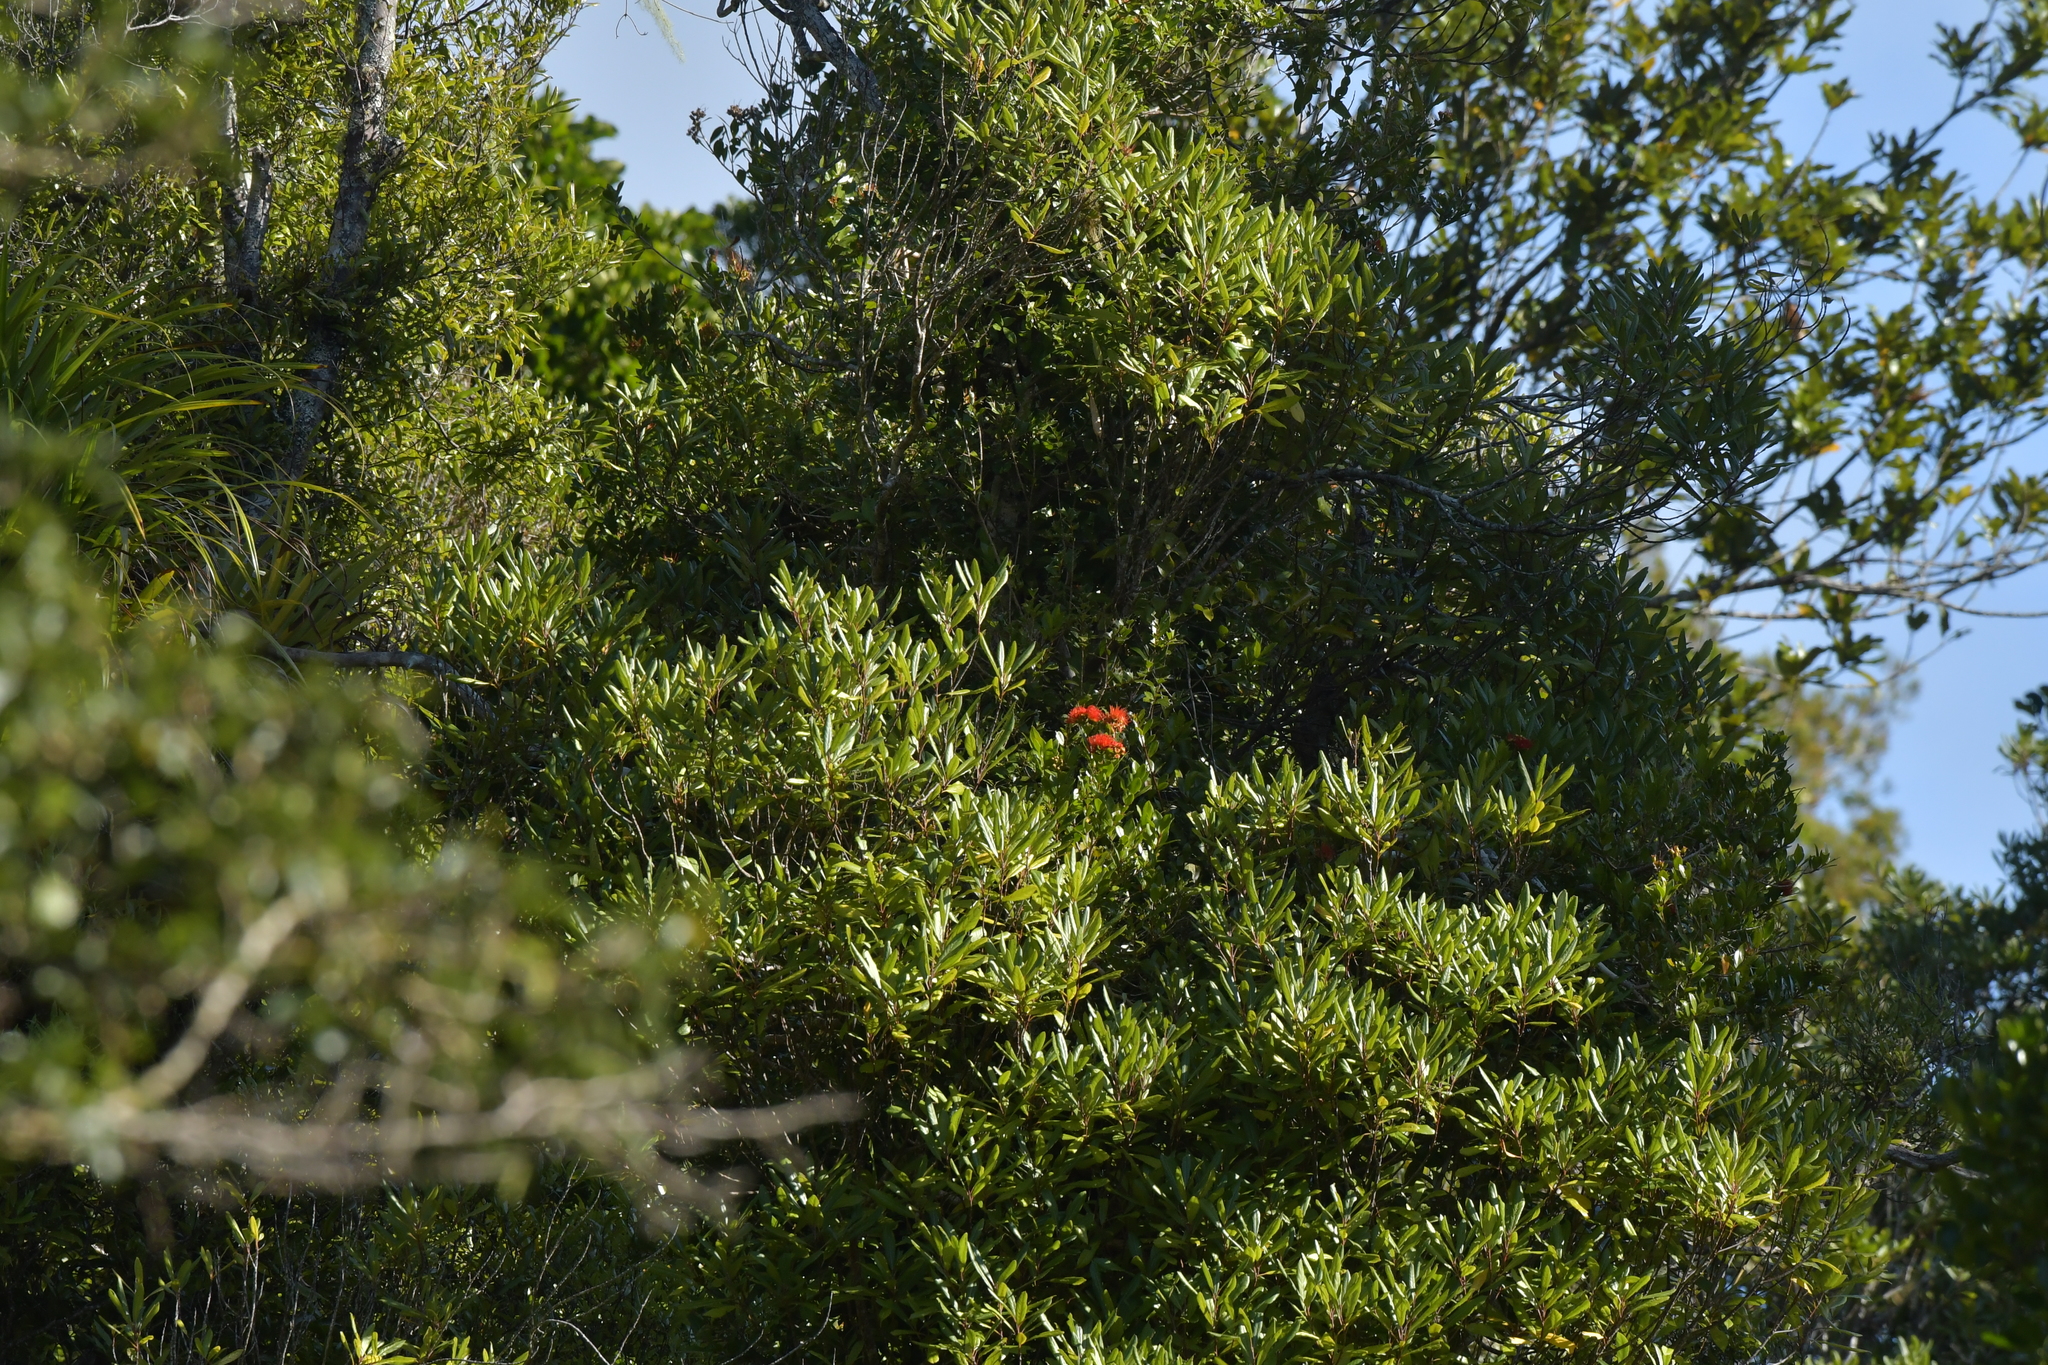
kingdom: Plantae
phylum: Tracheophyta
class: Magnoliopsida
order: Myrtales
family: Myrtaceae
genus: Metrosideros
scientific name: Metrosideros fulgens
